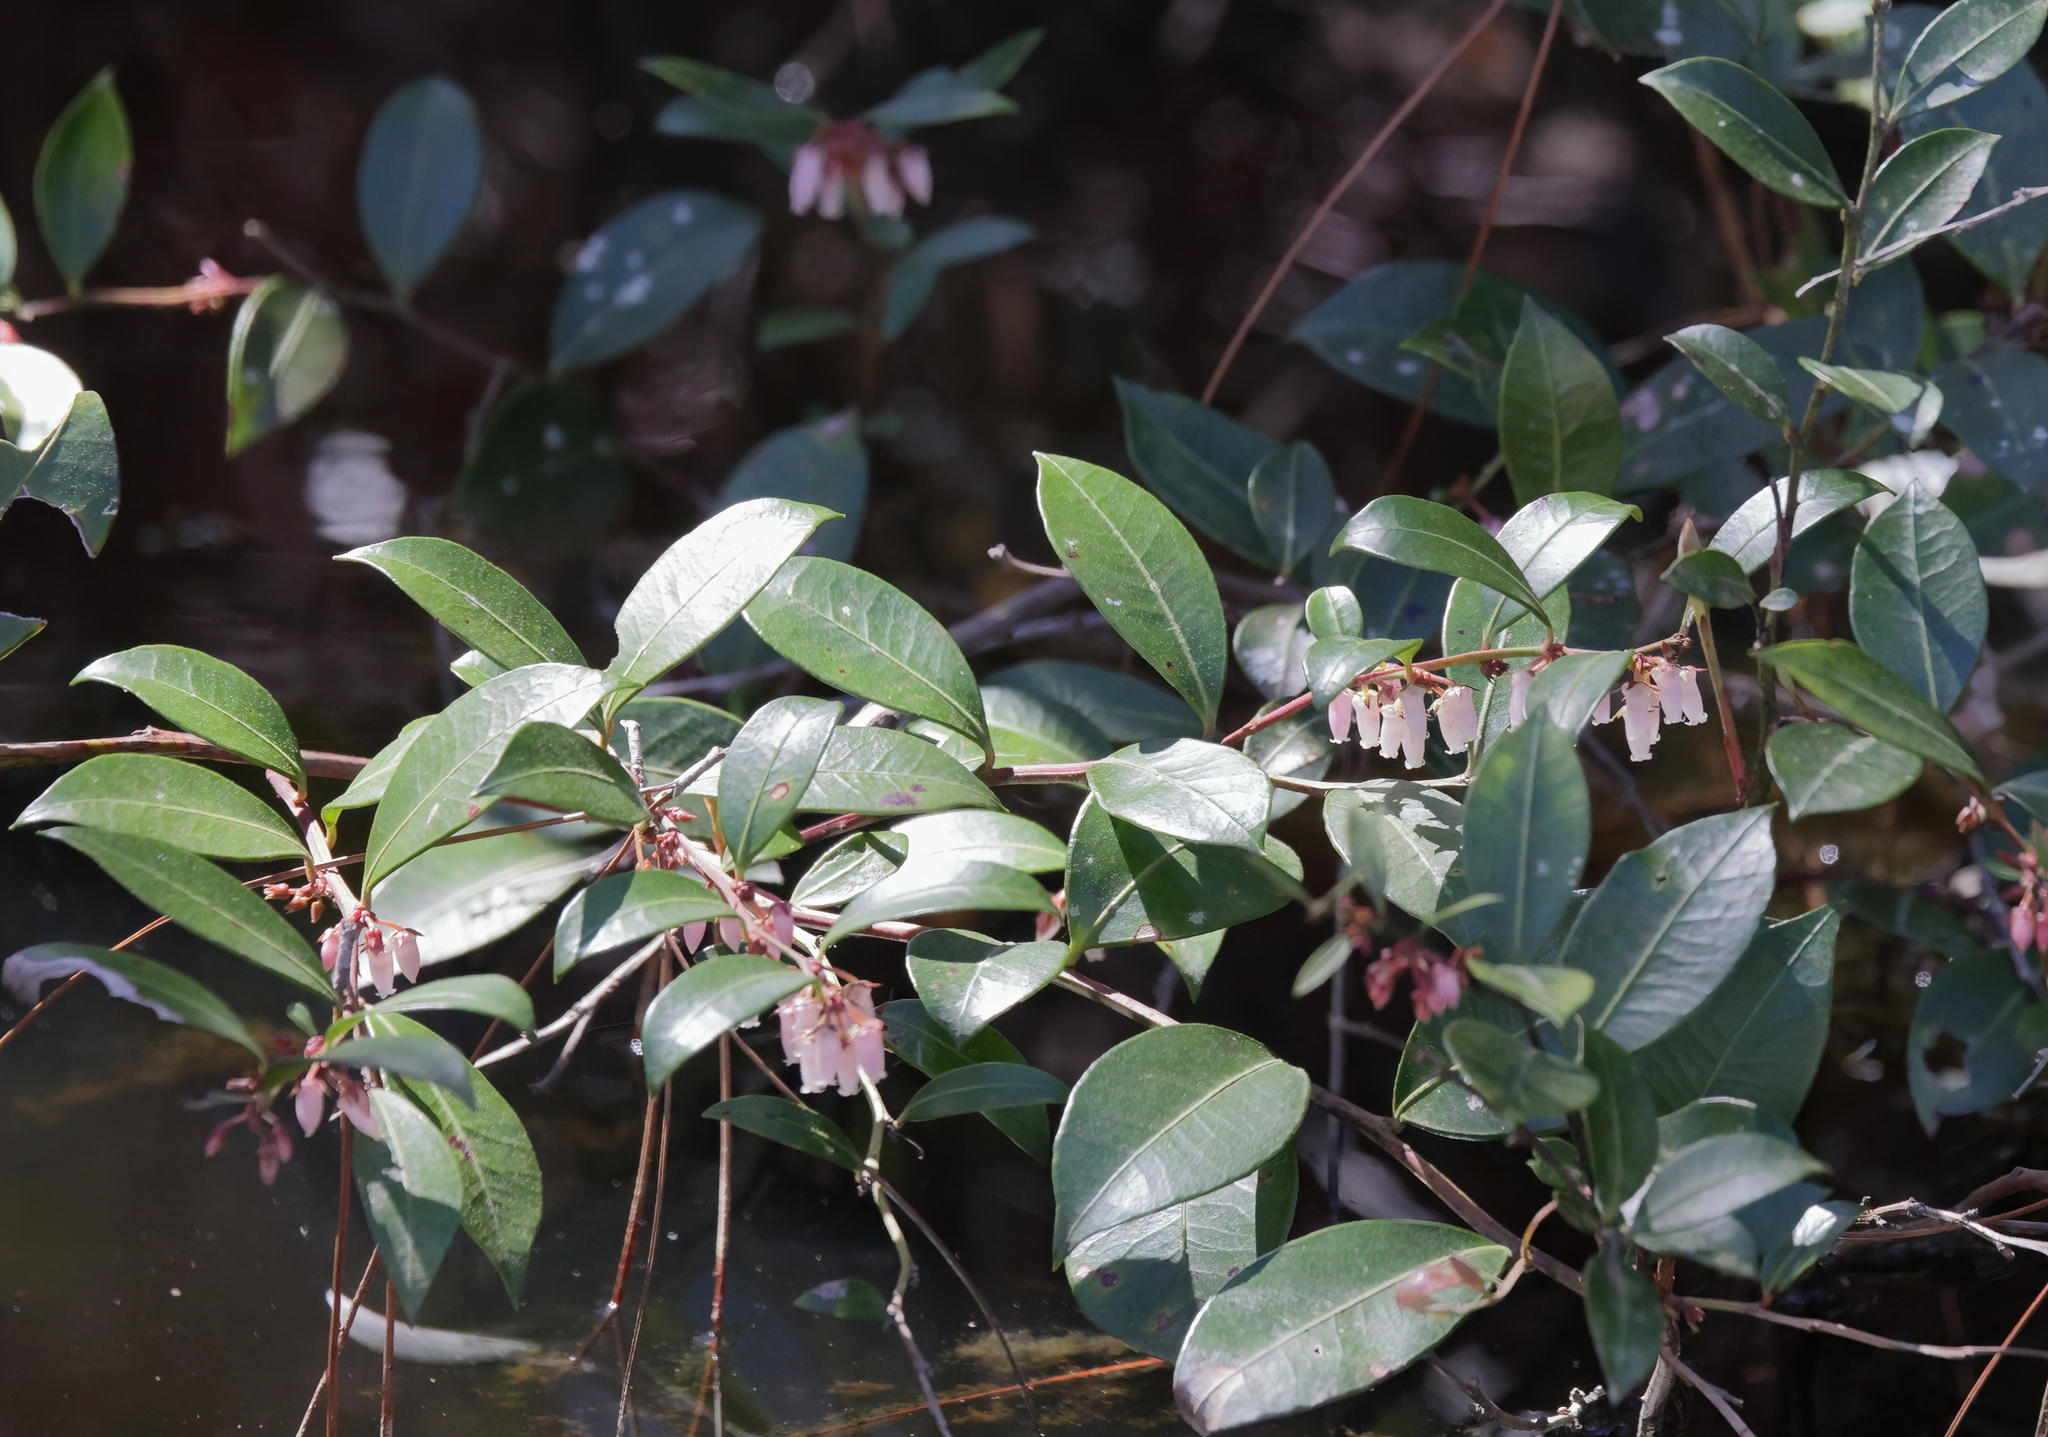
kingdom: Plantae
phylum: Tracheophyta
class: Magnoliopsida
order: Ericales
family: Ericaceae
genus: Lyonia
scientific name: Lyonia lucida
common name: Fetterbush
